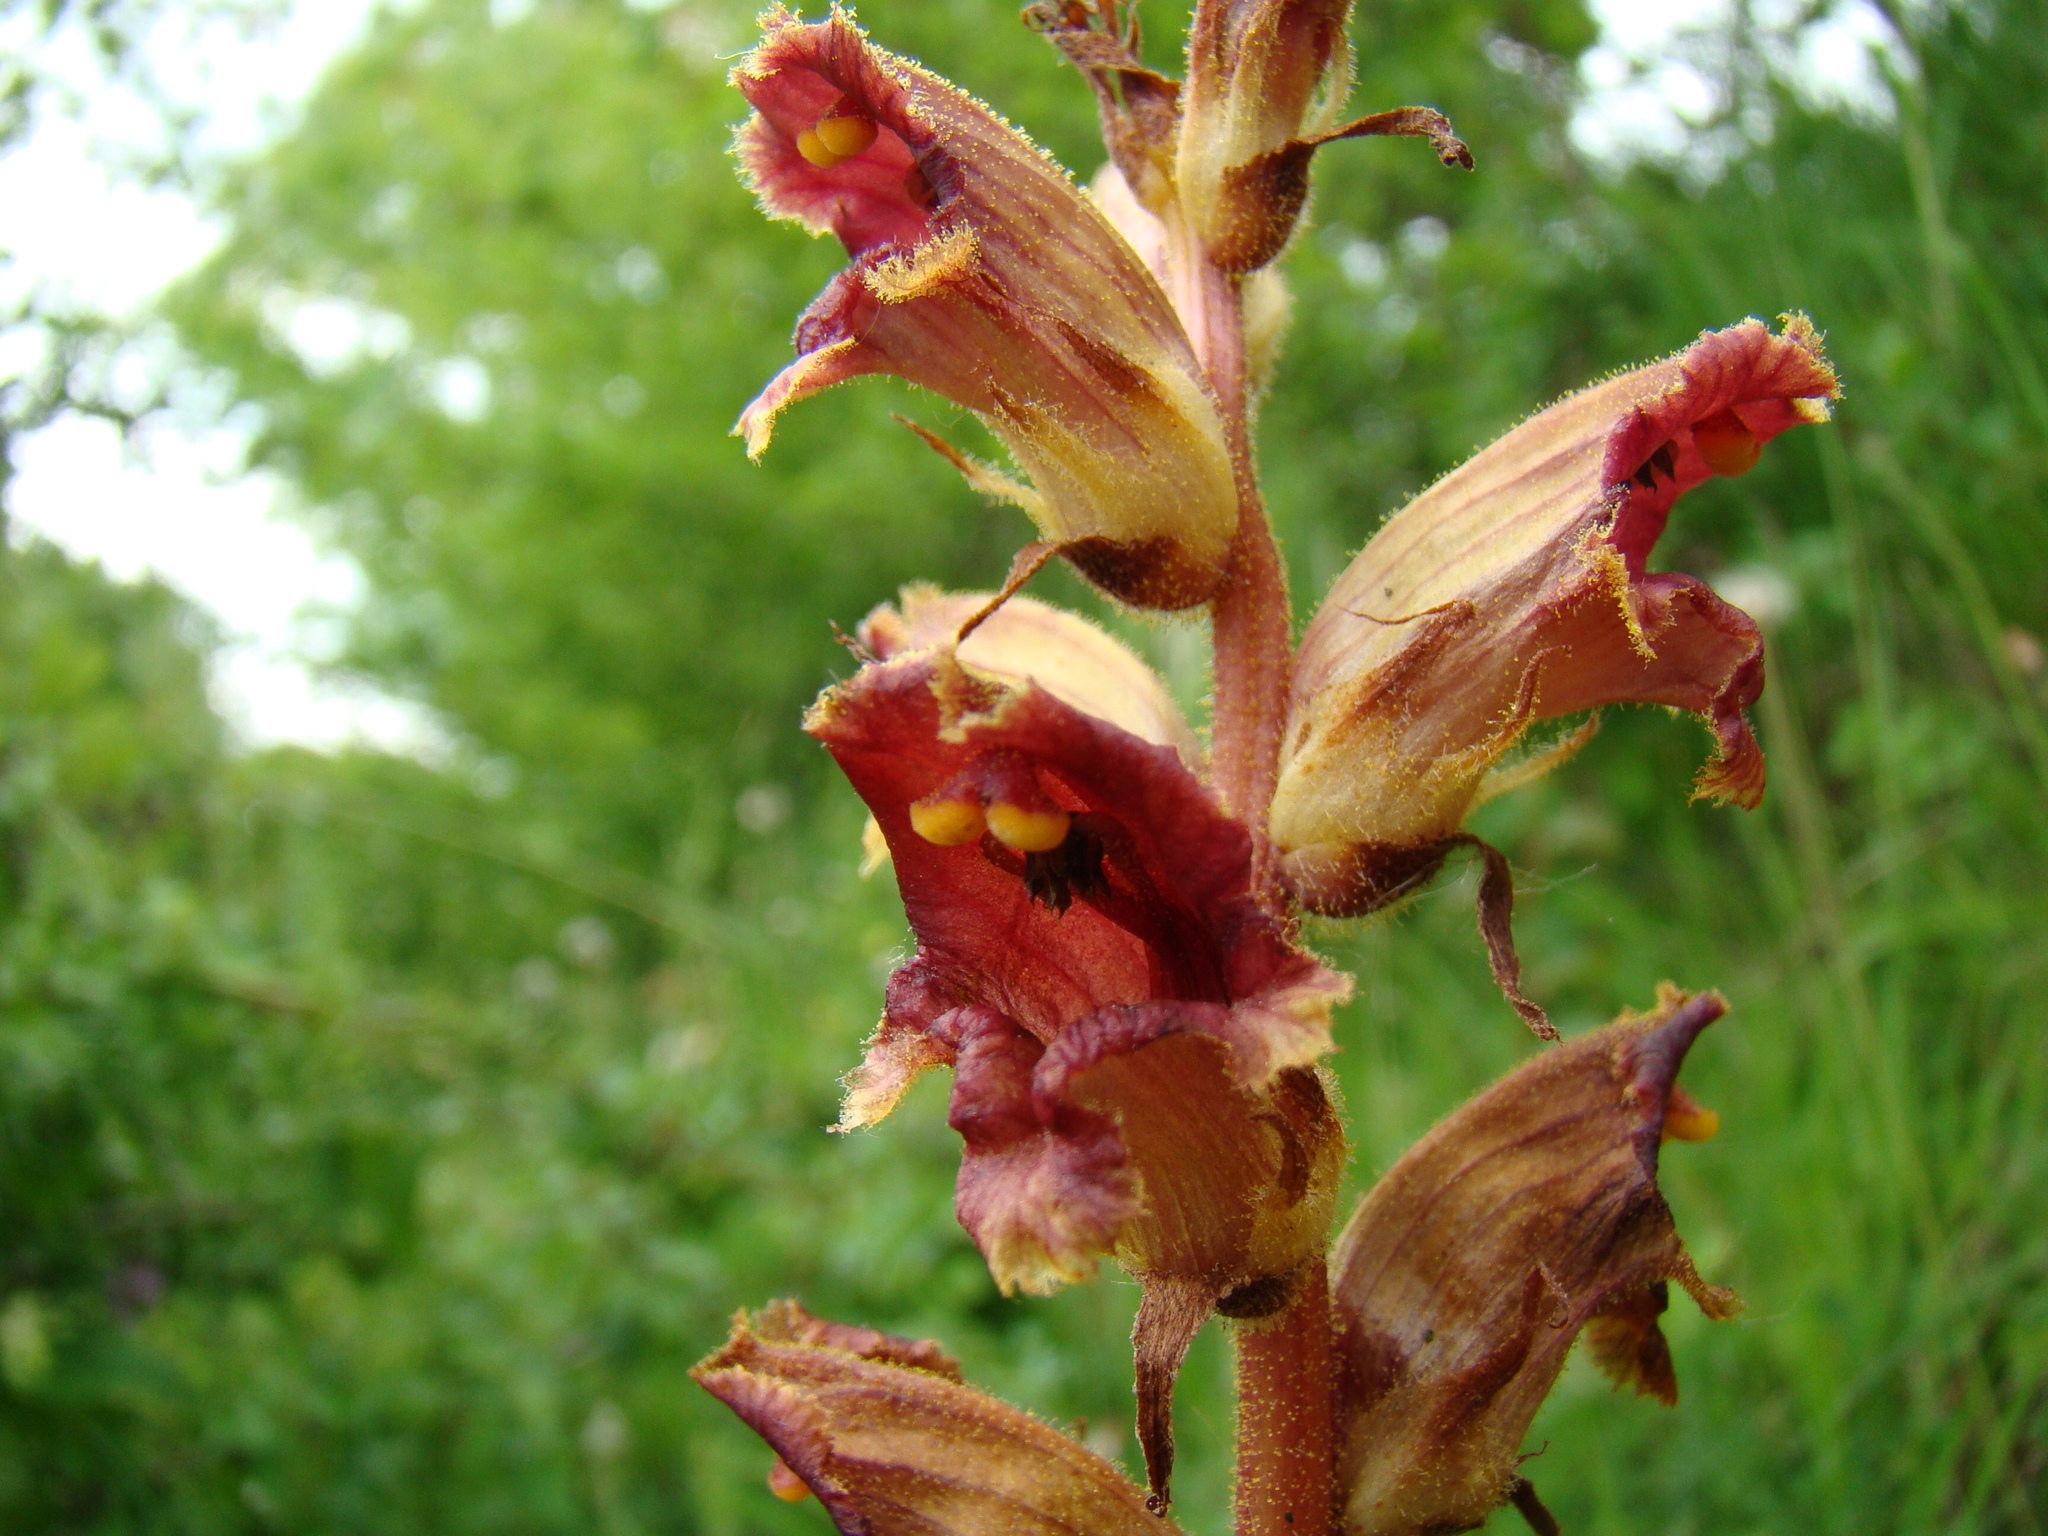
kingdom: Plantae
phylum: Tracheophyta
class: Magnoliopsida
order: Lamiales
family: Orobanchaceae
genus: Orobanche
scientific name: Orobanche gracilis
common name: Slender broomrape
